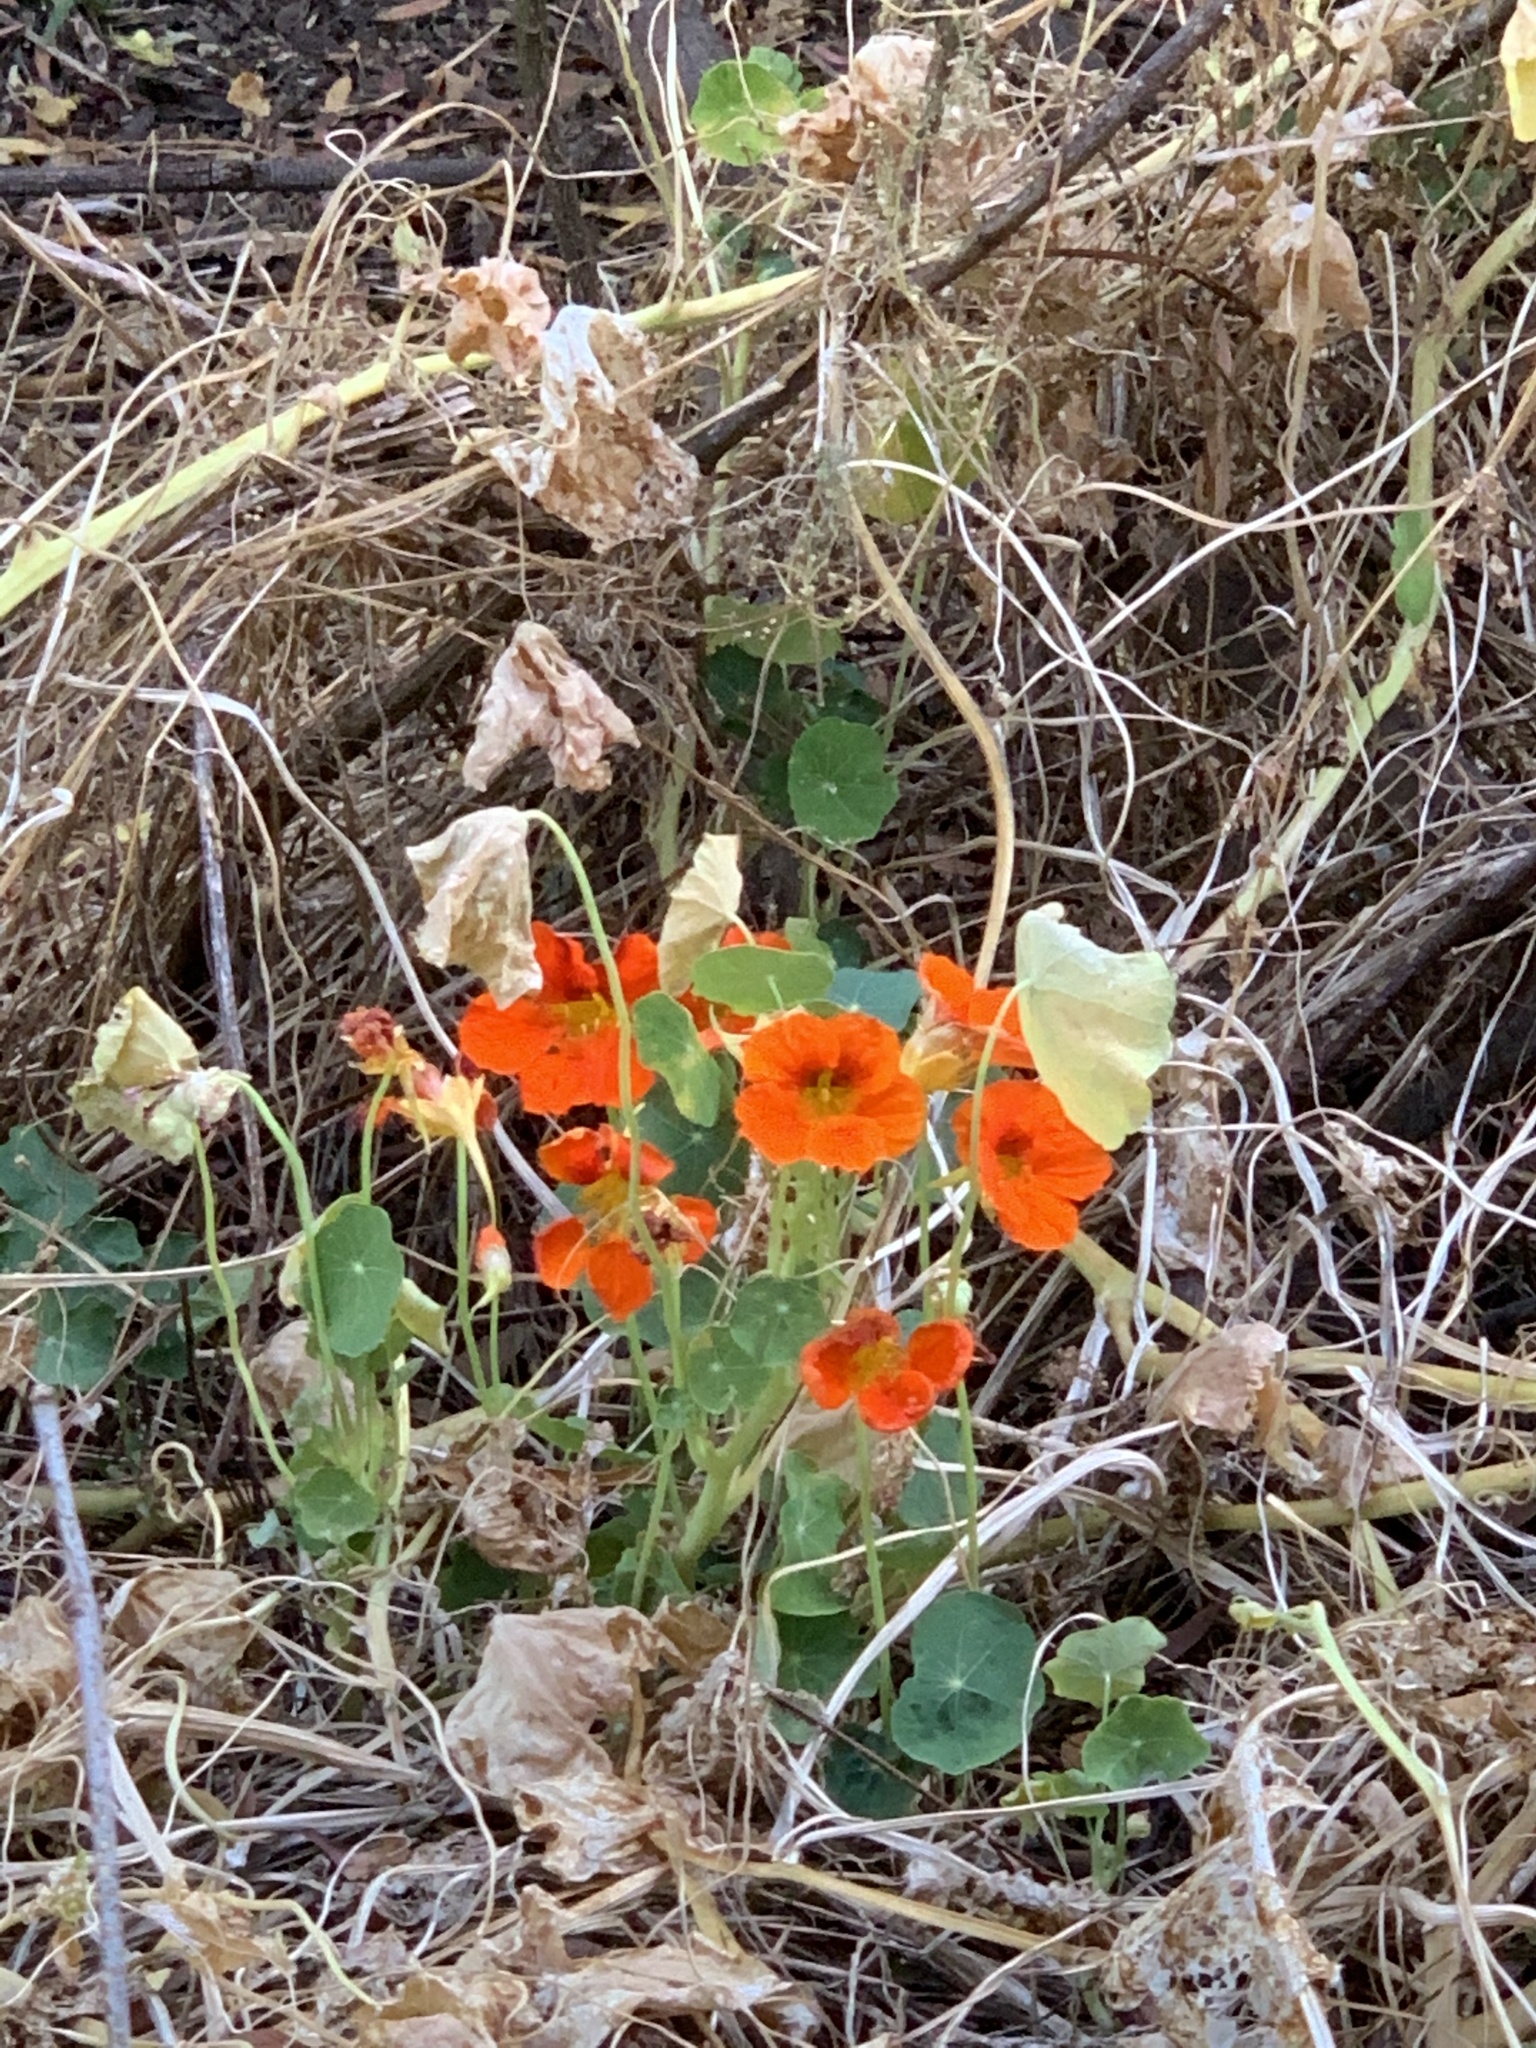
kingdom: Plantae
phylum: Tracheophyta
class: Magnoliopsida
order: Brassicales
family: Tropaeolaceae
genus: Tropaeolum
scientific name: Tropaeolum majus
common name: Nasturtium
